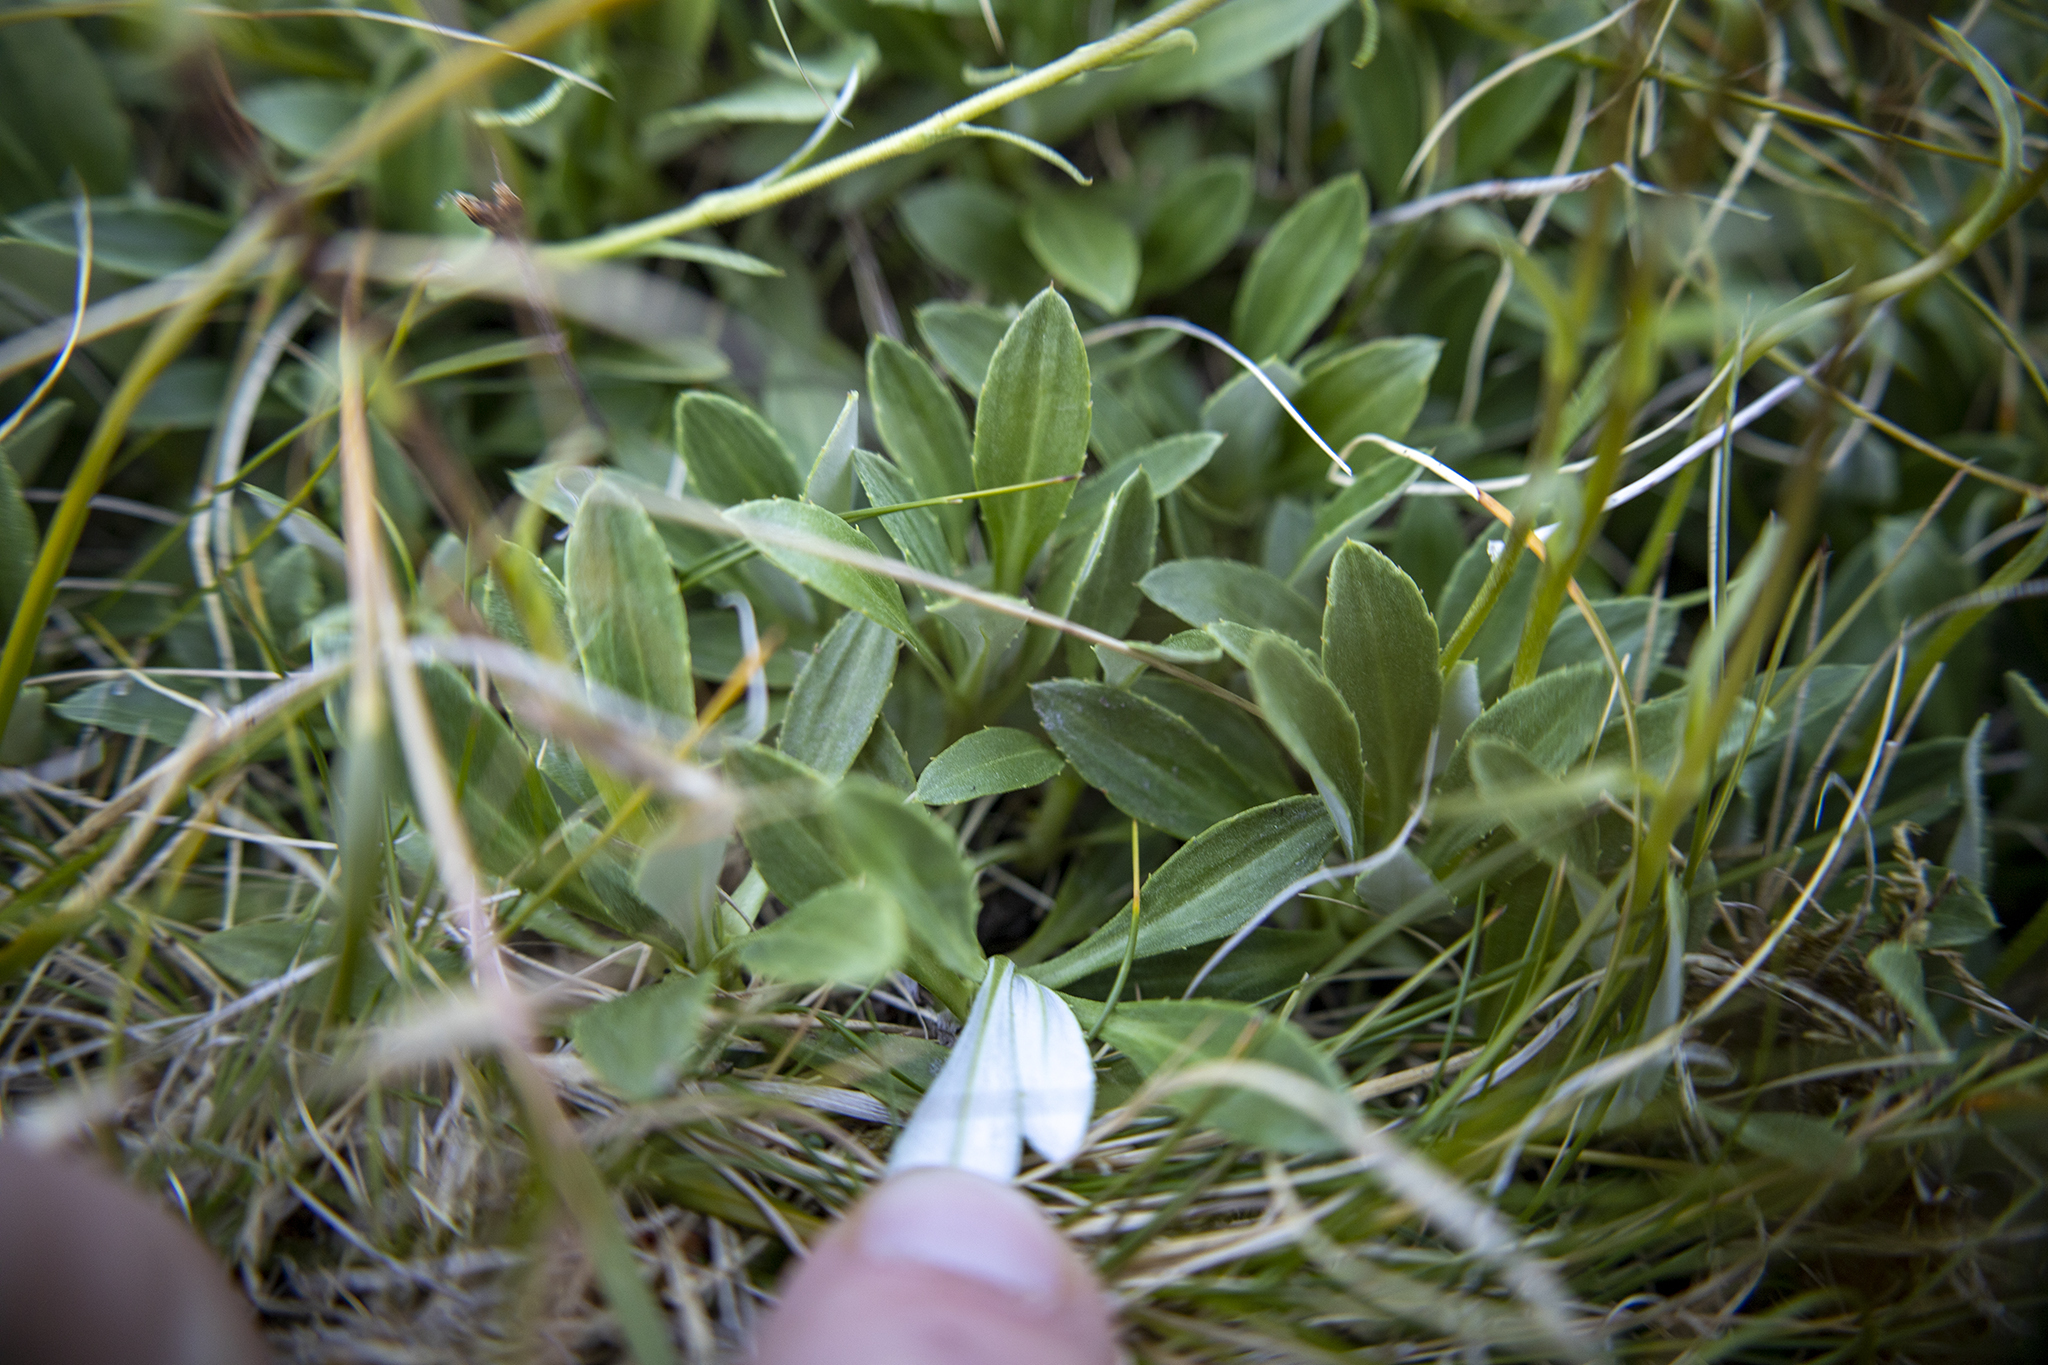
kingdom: Plantae
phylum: Tracheophyta
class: Magnoliopsida
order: Asterales
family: Asteraceae
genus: Celmisia
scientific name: Celmisia durietzii
